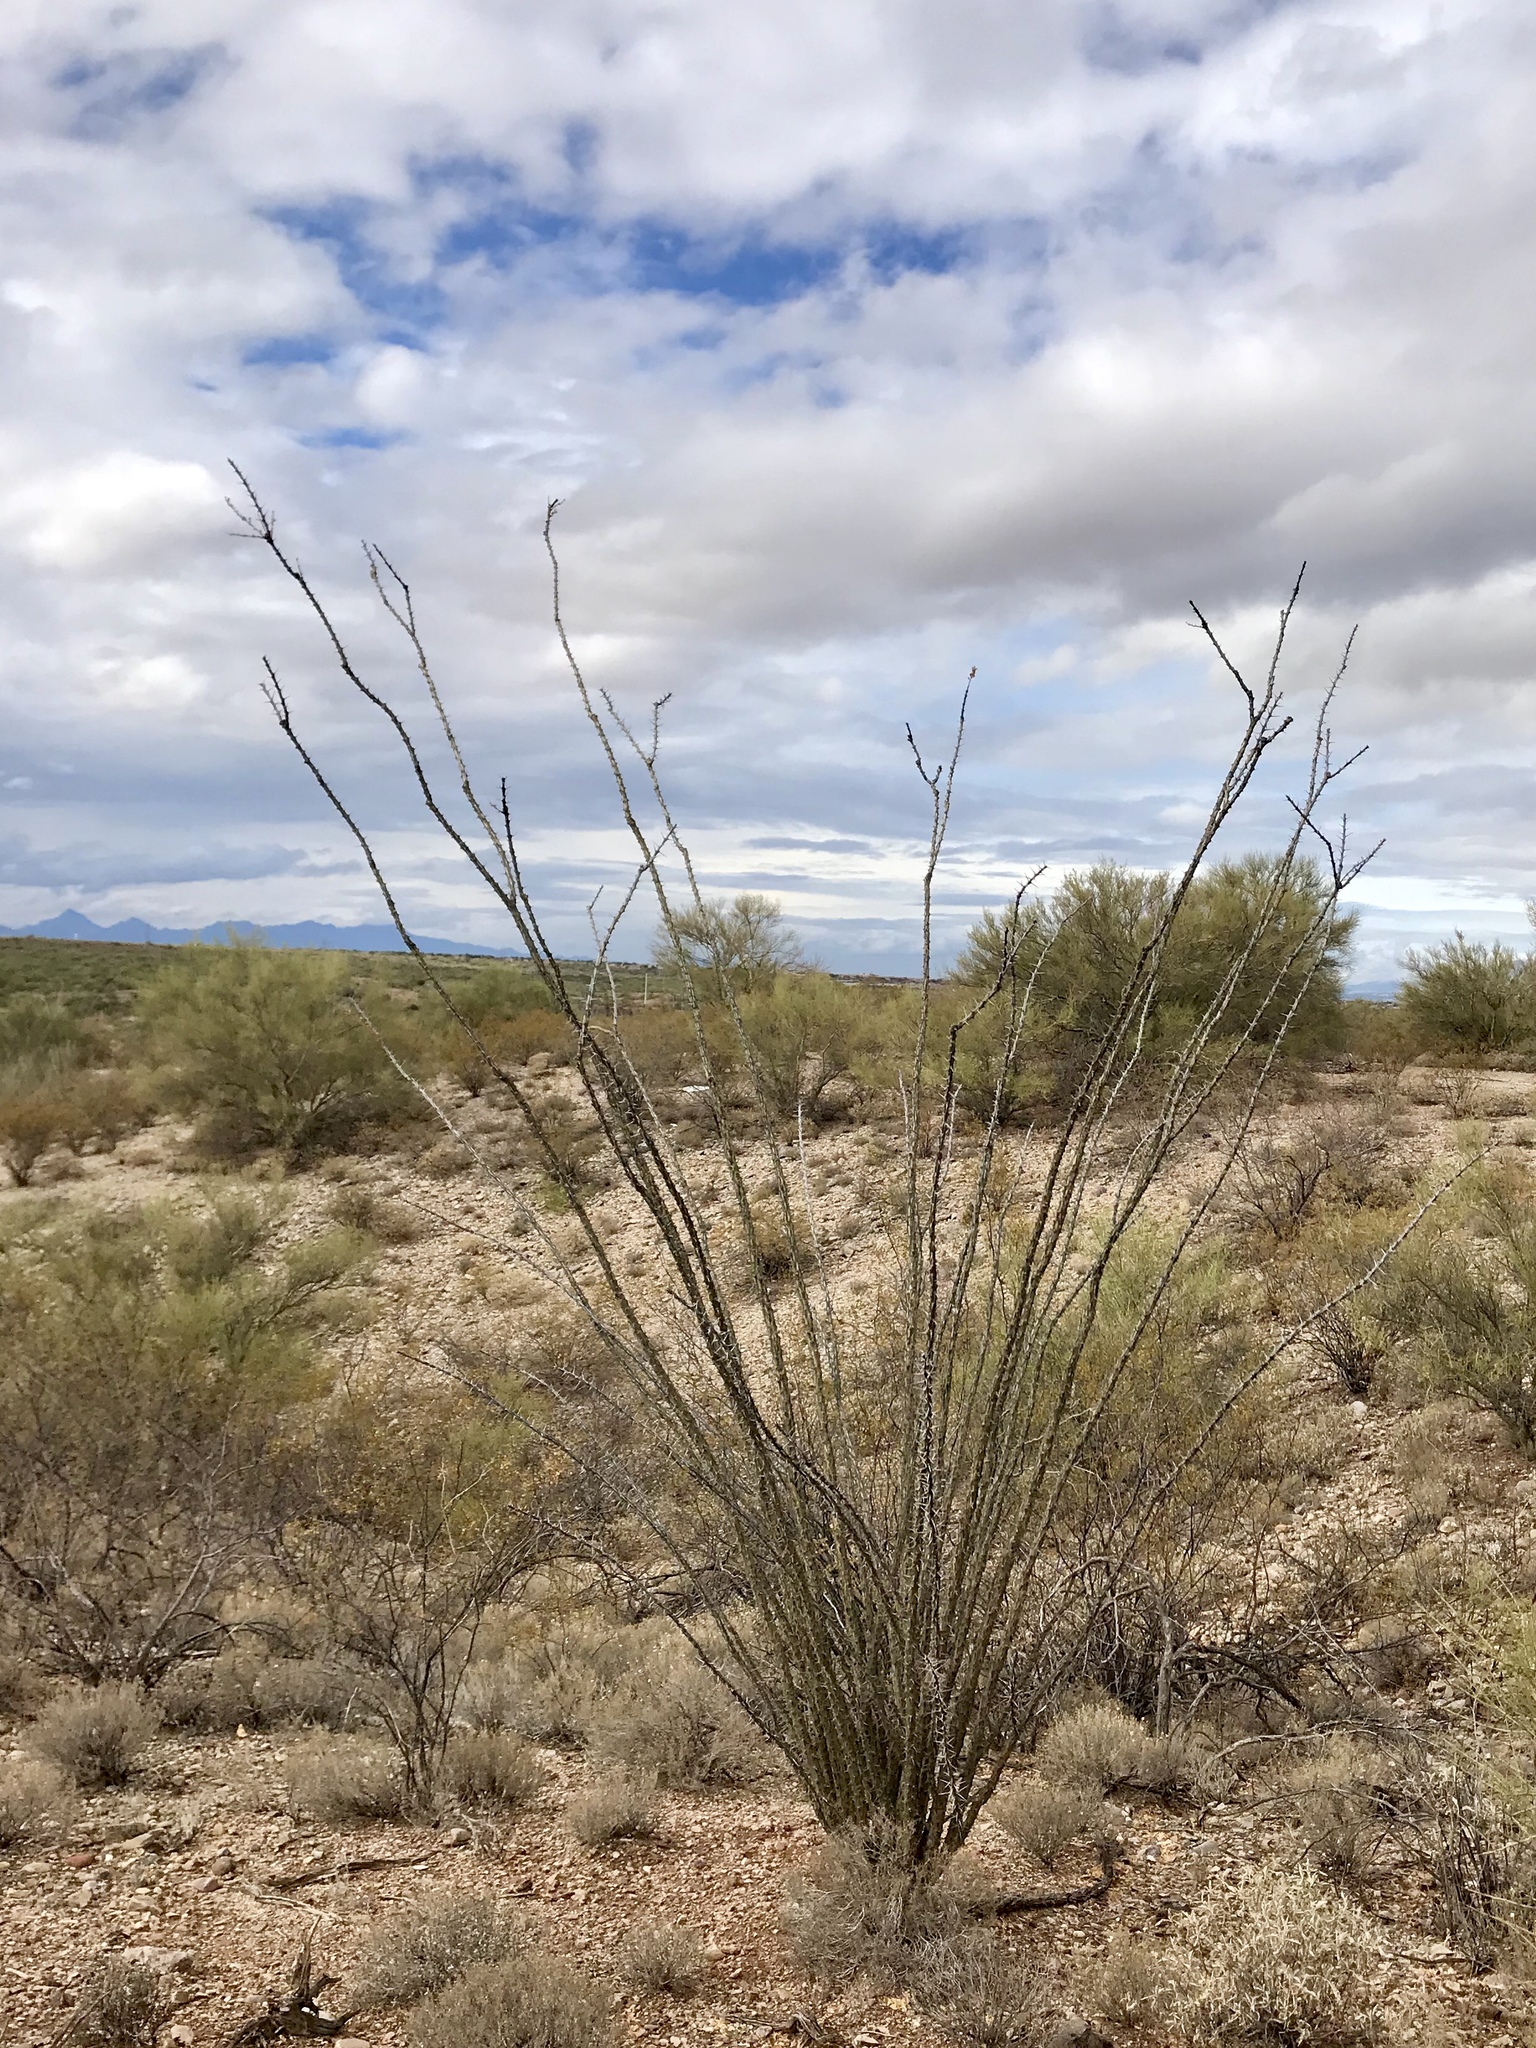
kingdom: Plantae
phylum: Tracheophyta
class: Magnoliopsida
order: Ericales
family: Fouquieriaceae
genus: Fouquieria
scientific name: Fouquieria splendens
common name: Vine-cactus
